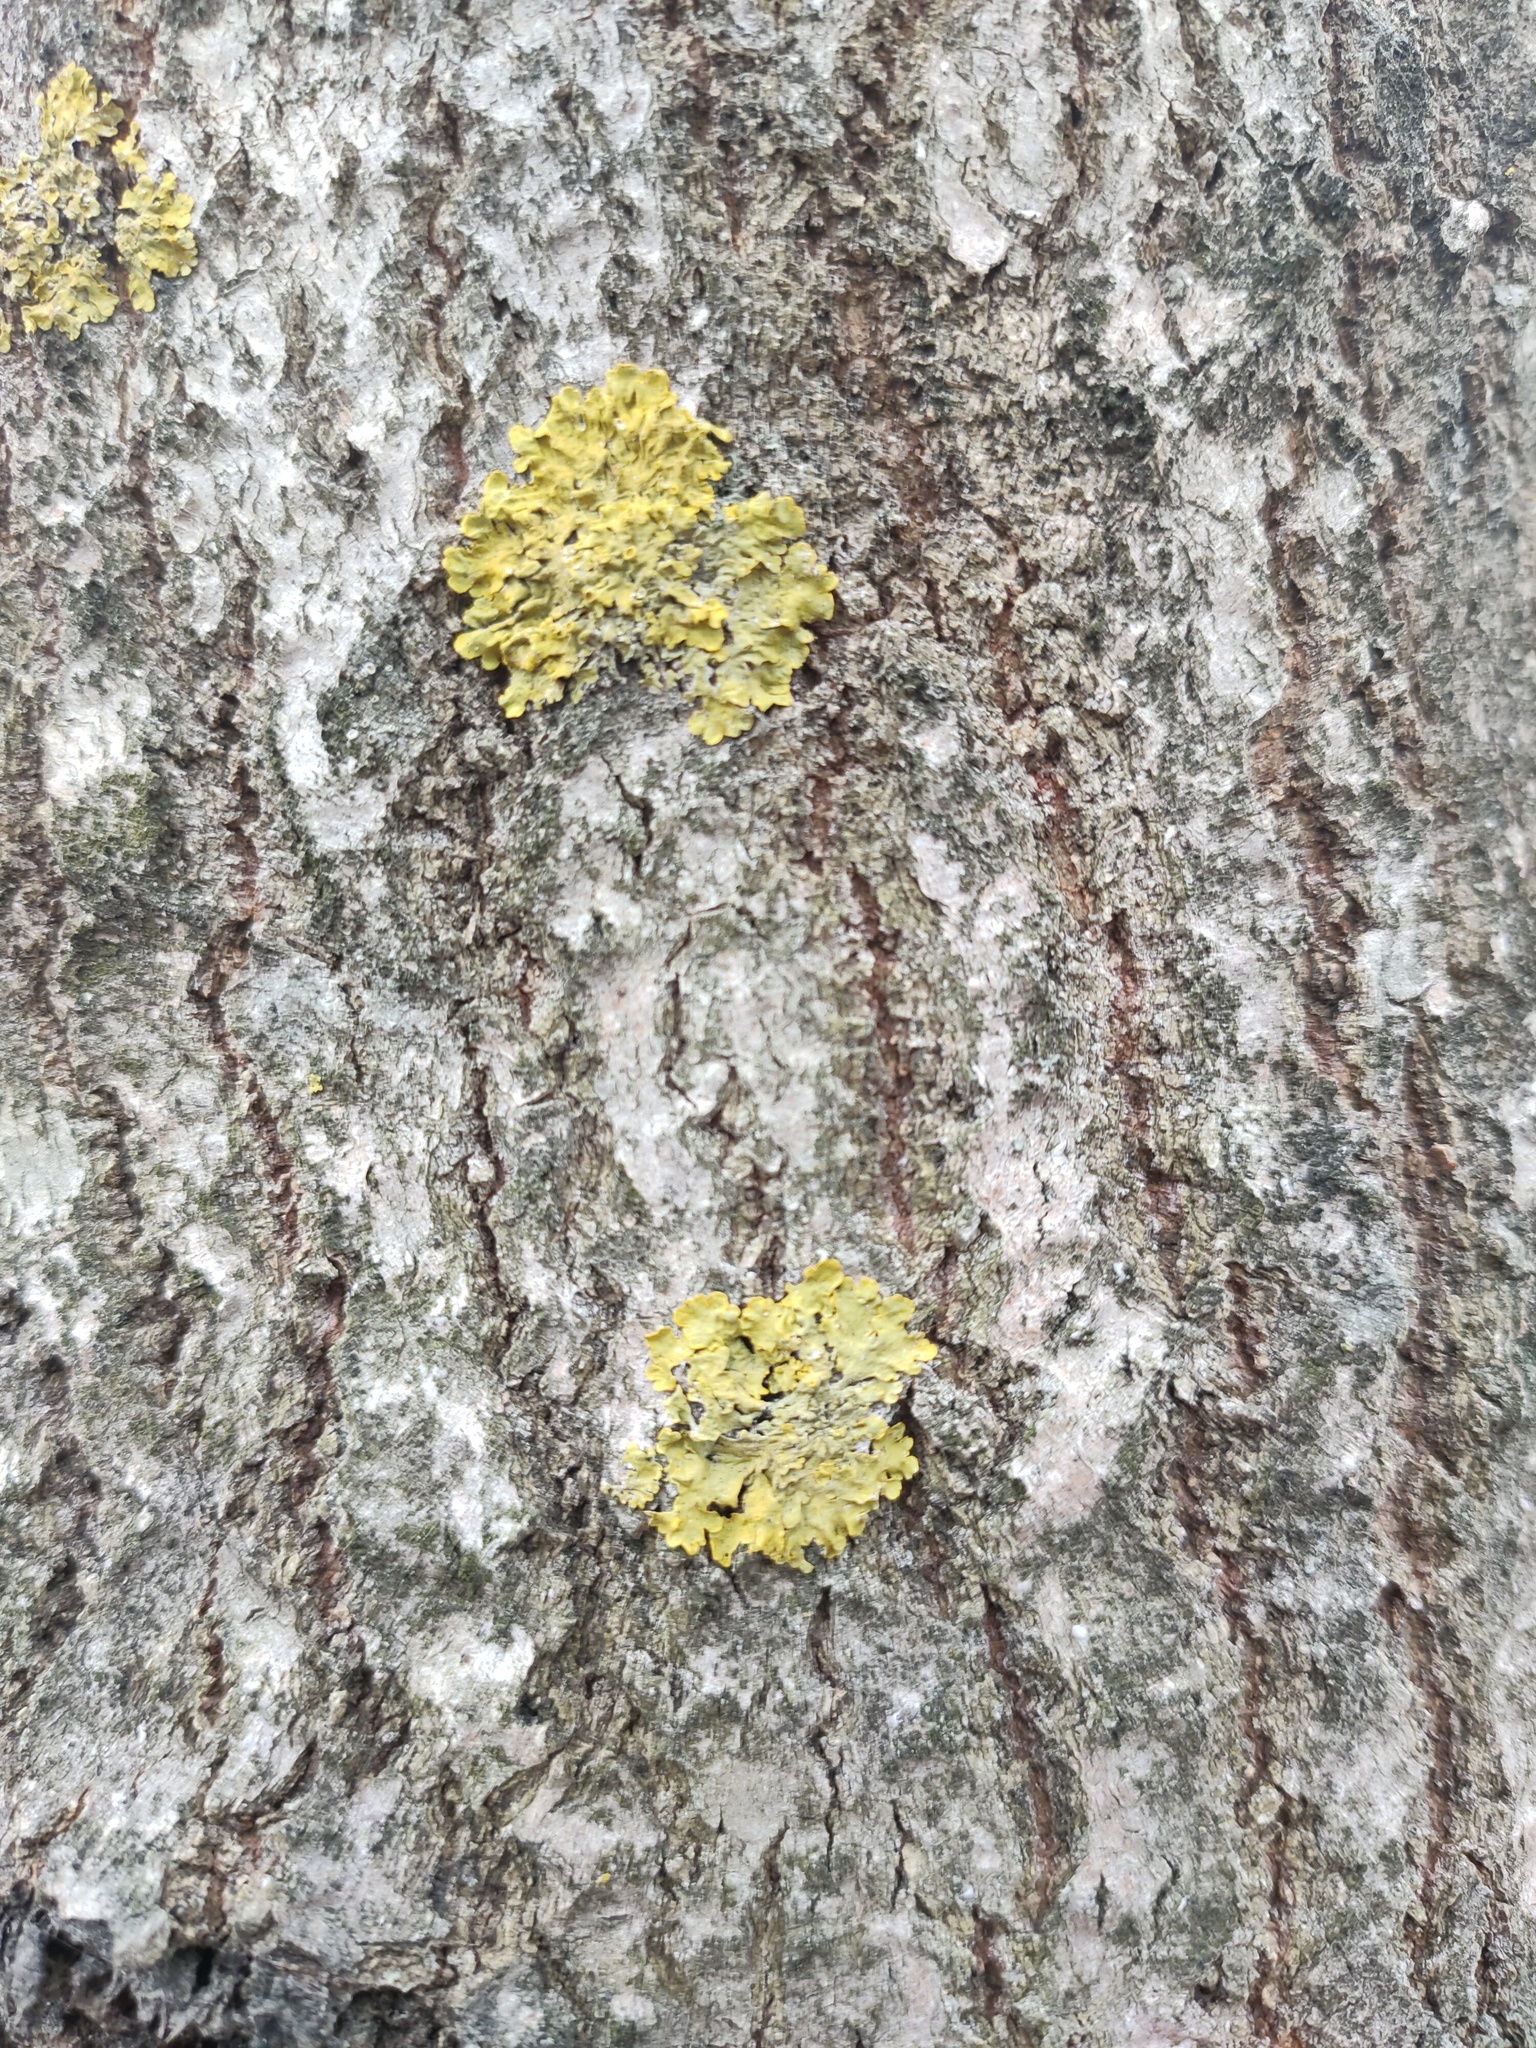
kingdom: Fungi
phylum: Ascomycota
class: Lecanoromycetes
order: Teloschistales
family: Teloschistaceae
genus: Xanthoria
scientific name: Xanthoria parietina
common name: Common orange lichen
